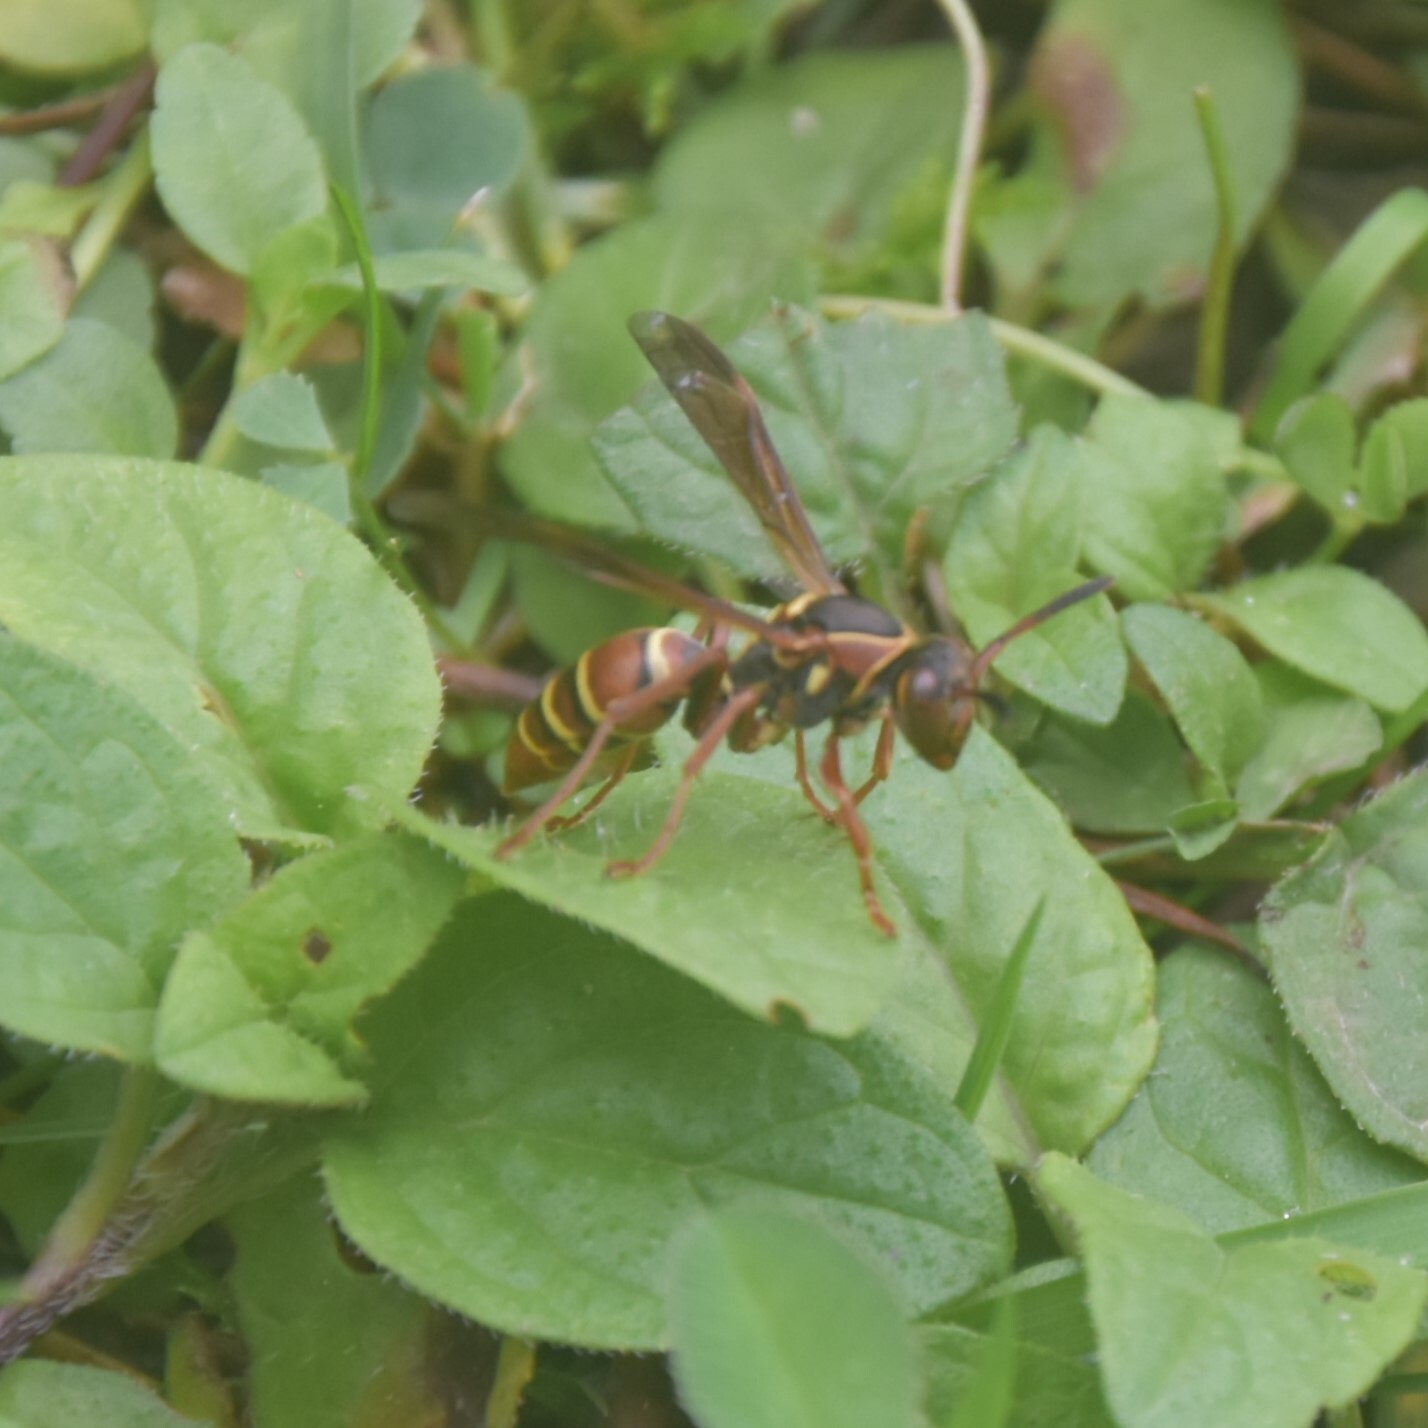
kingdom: Animalia
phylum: Arthropoda
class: Insecta
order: Hymenoptera
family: Eumenidae
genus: Knemodynerus
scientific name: Knemodynerus multimaculatus
